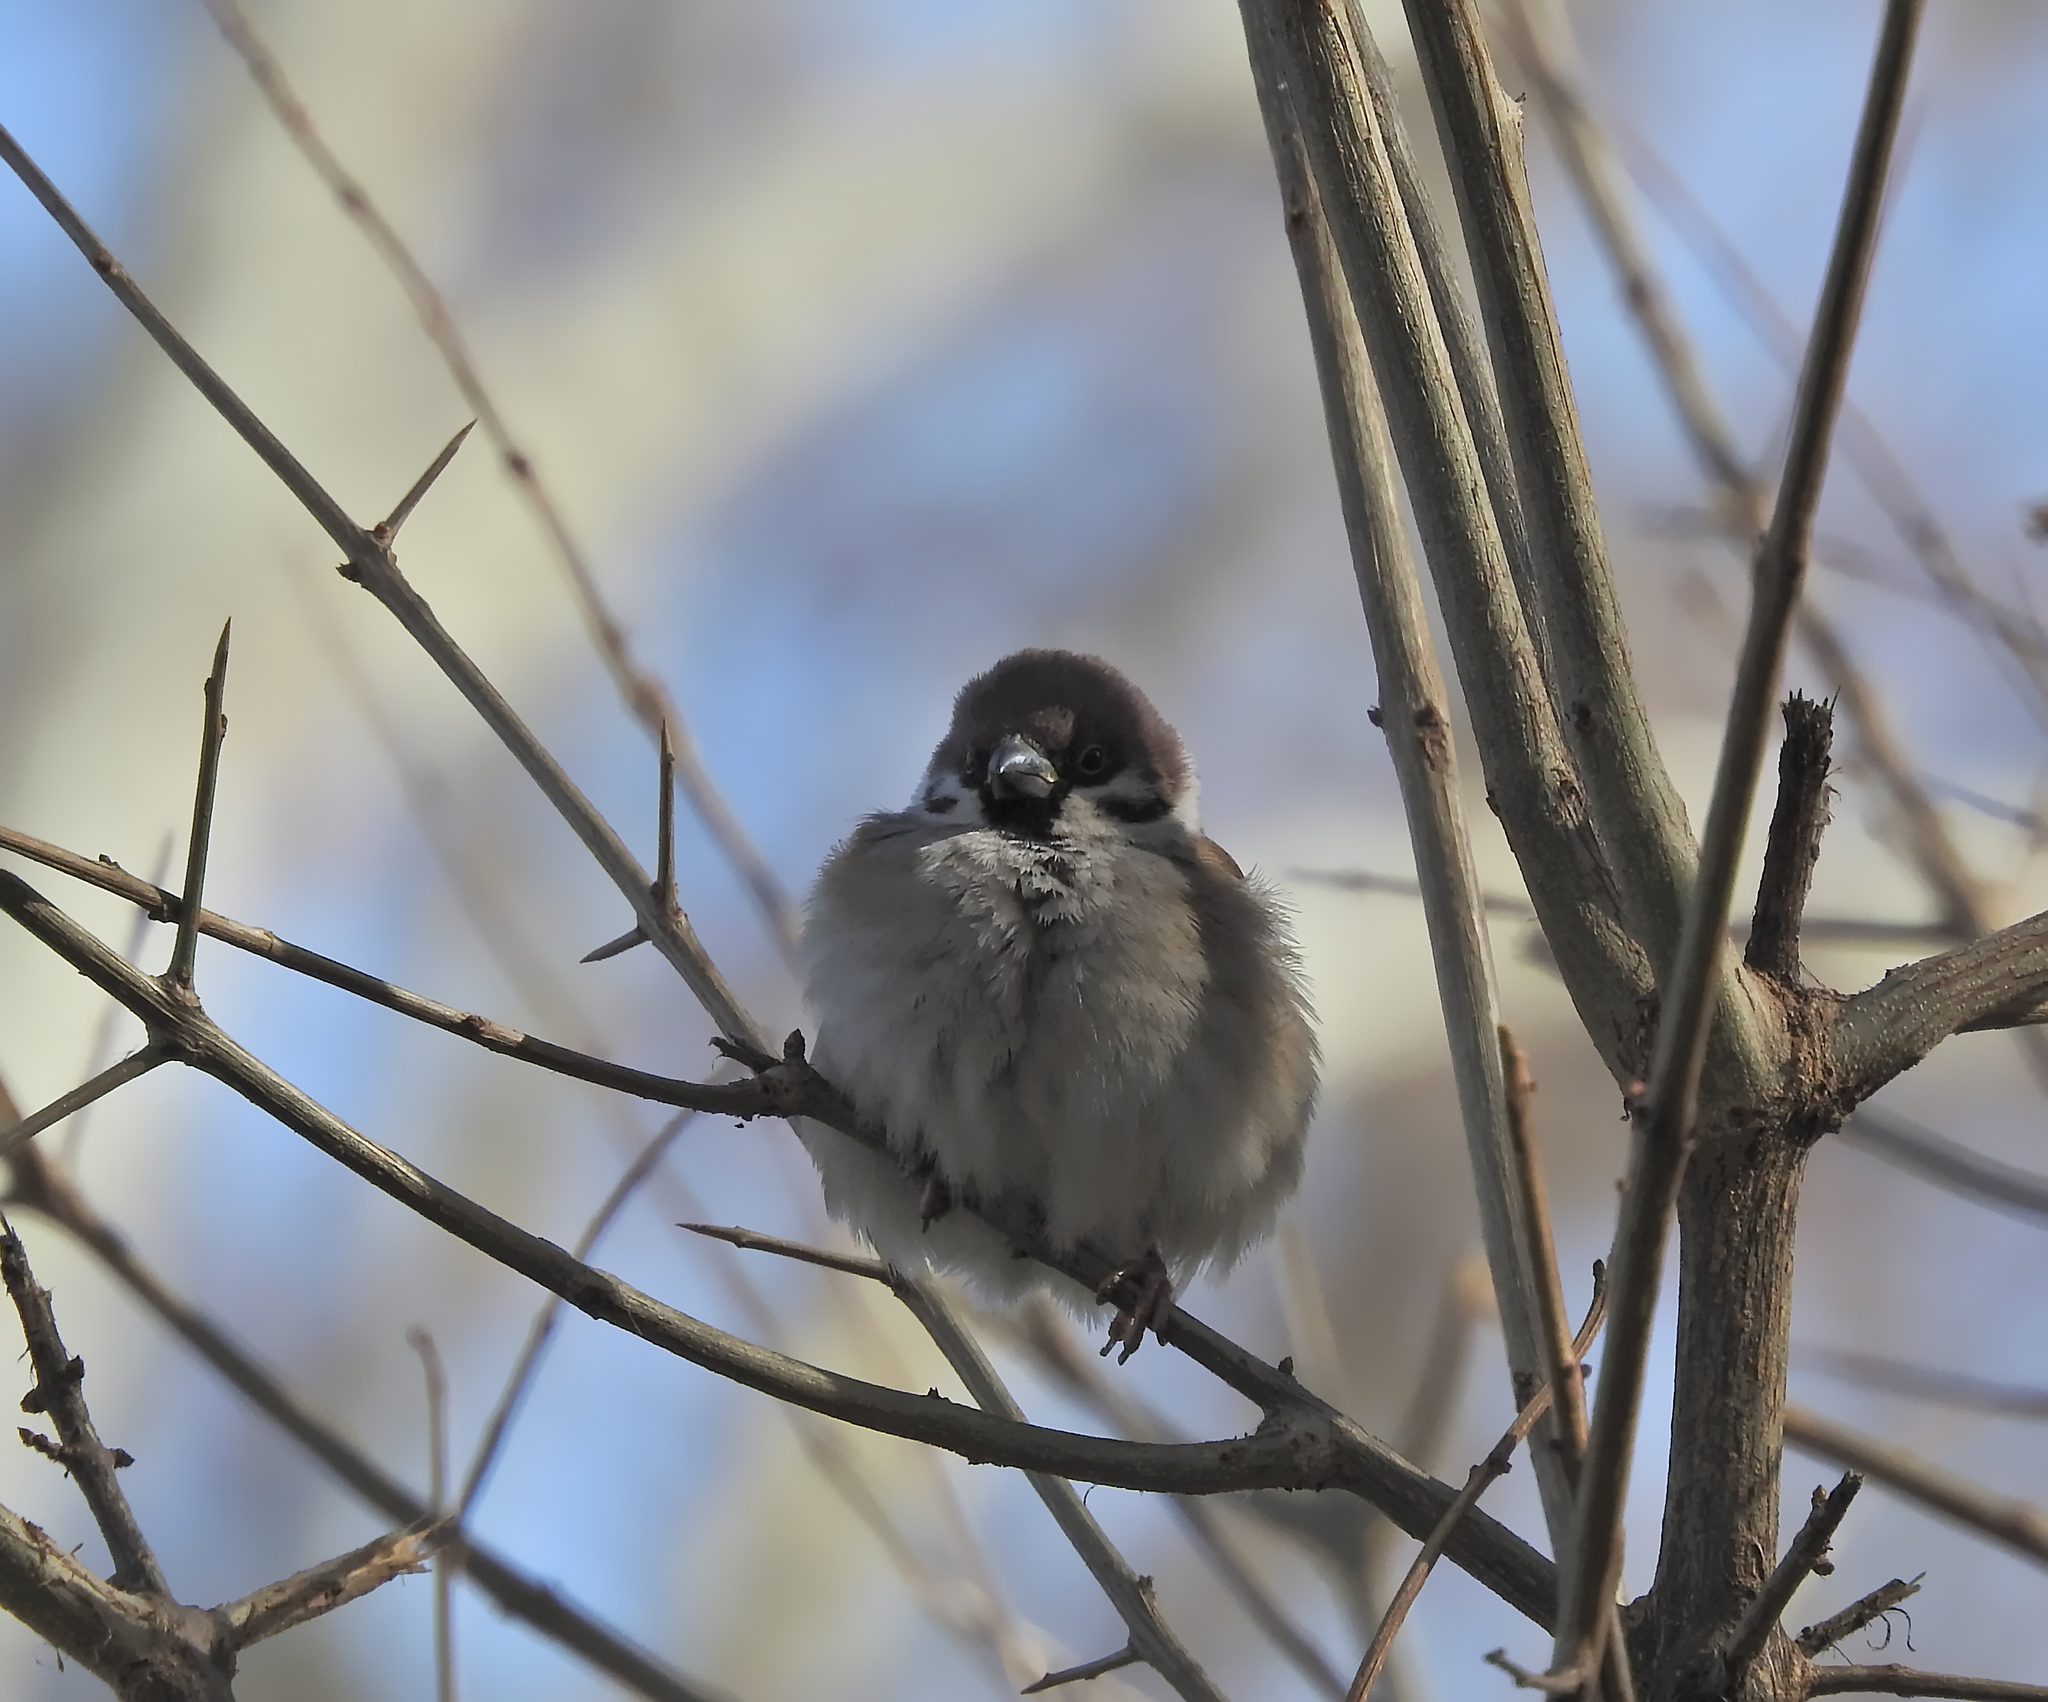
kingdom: Animalia
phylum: Chordata
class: Aves
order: Passeriformes
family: Passeridae
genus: Passer
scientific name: Passer montanus
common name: Eurasian tree sparrow
